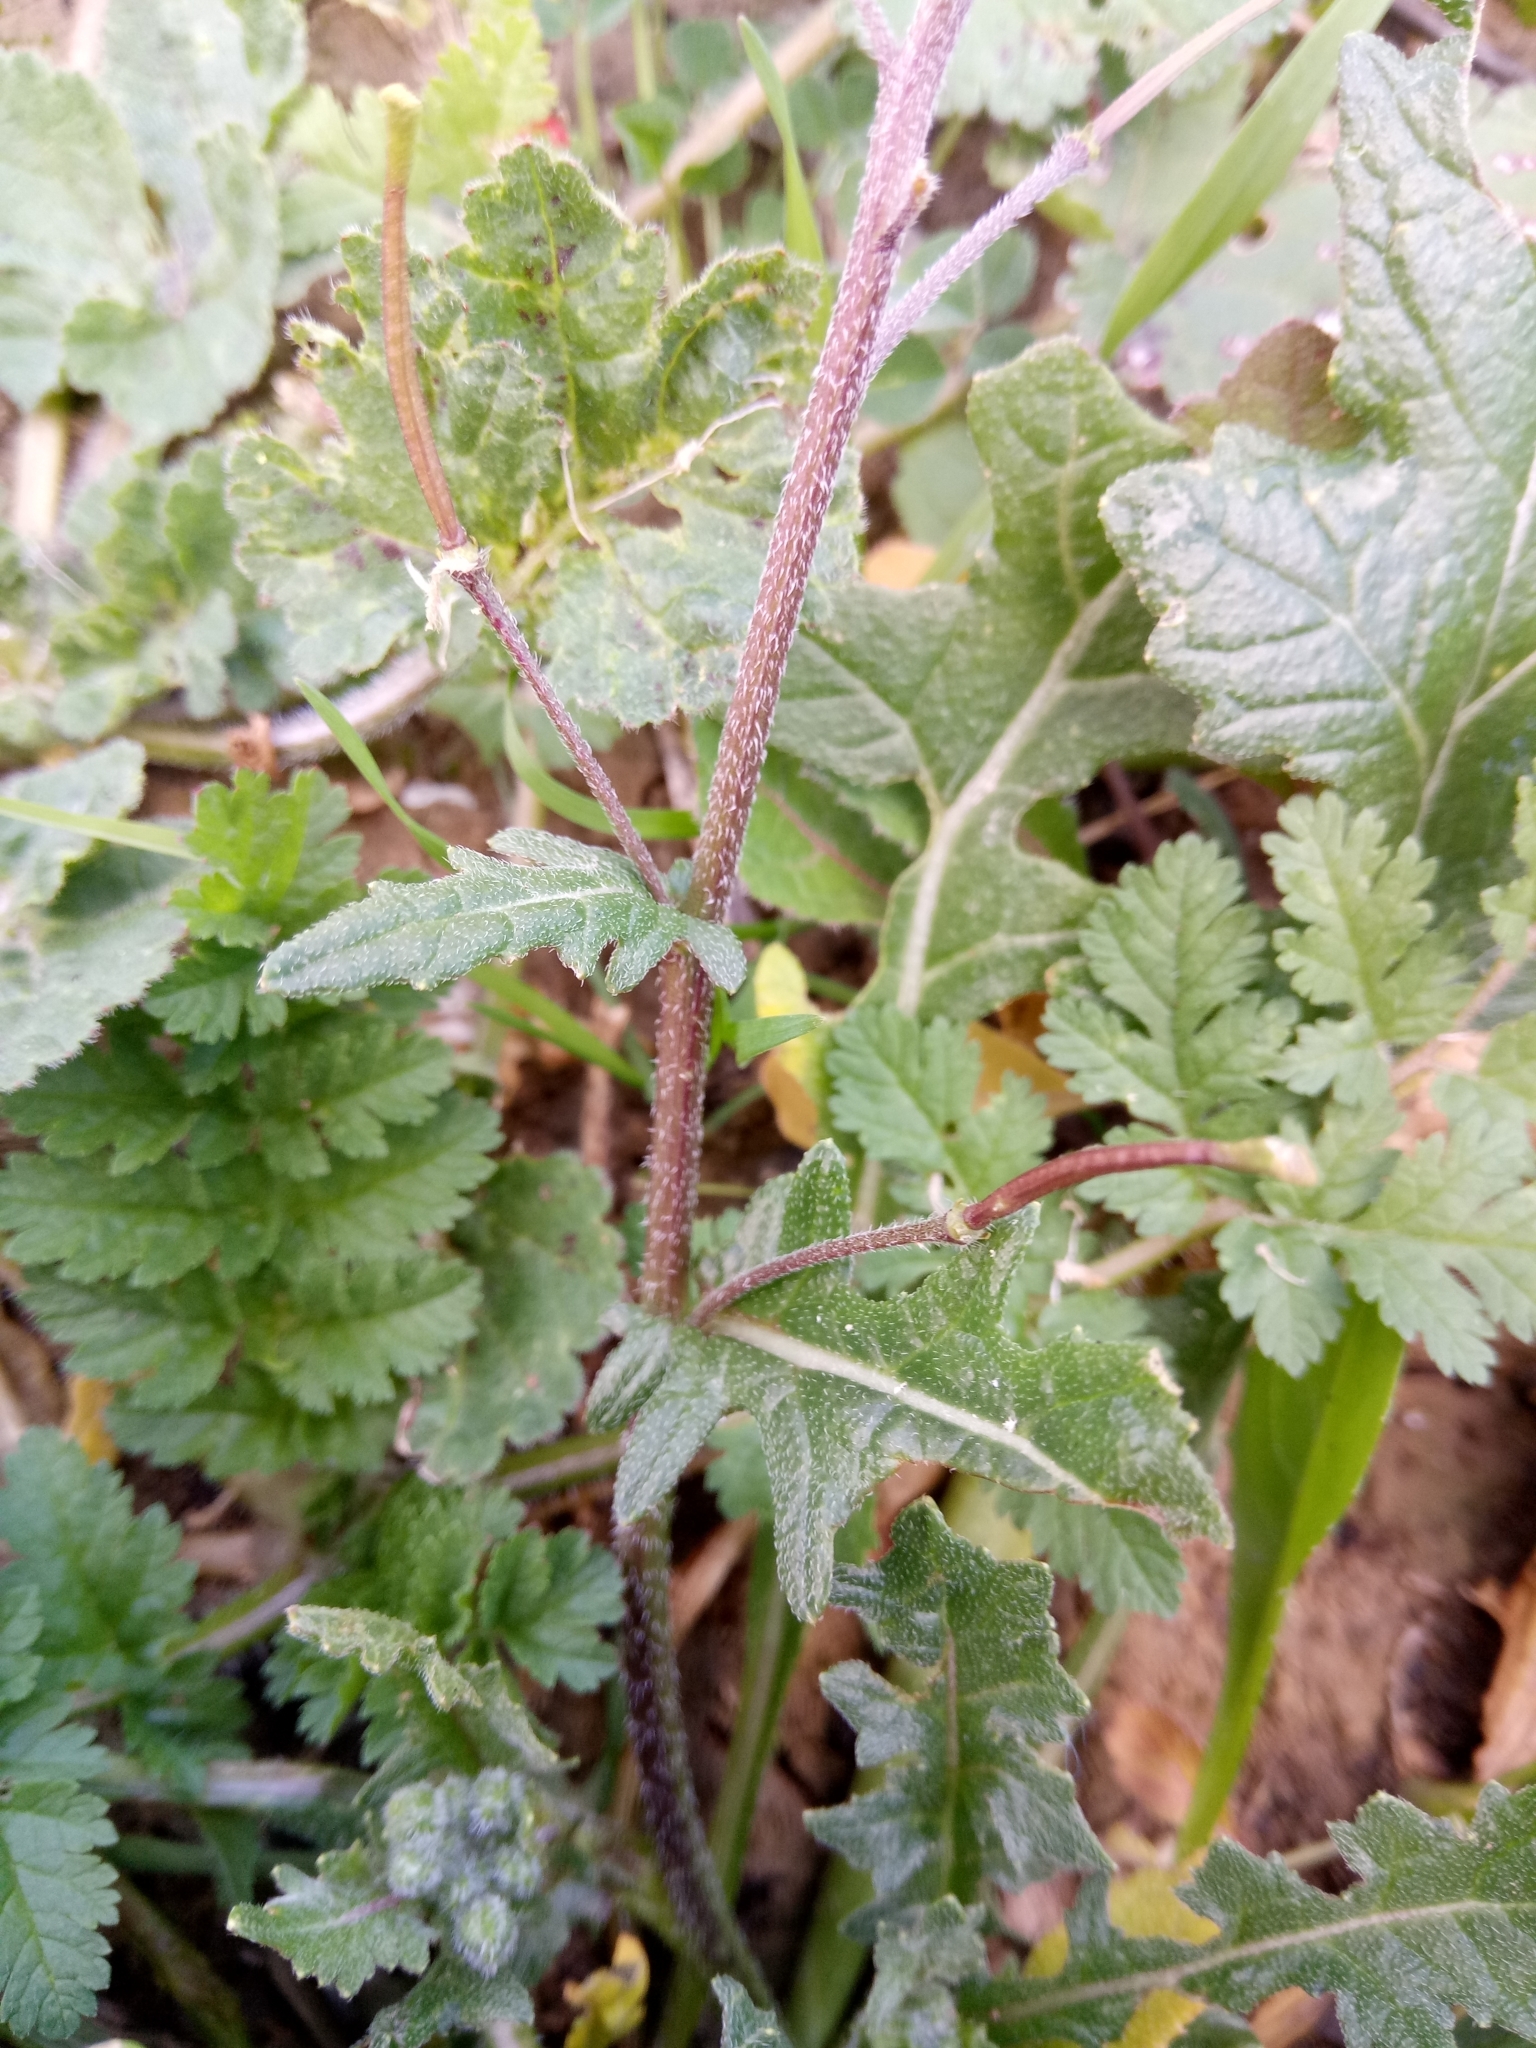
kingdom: Plantae
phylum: Tracheophyta
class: Magnoliopsida
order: Brassicales
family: Brassicaceae
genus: Diplotaxis
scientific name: Diplotaxis erucoides
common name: White rocket
